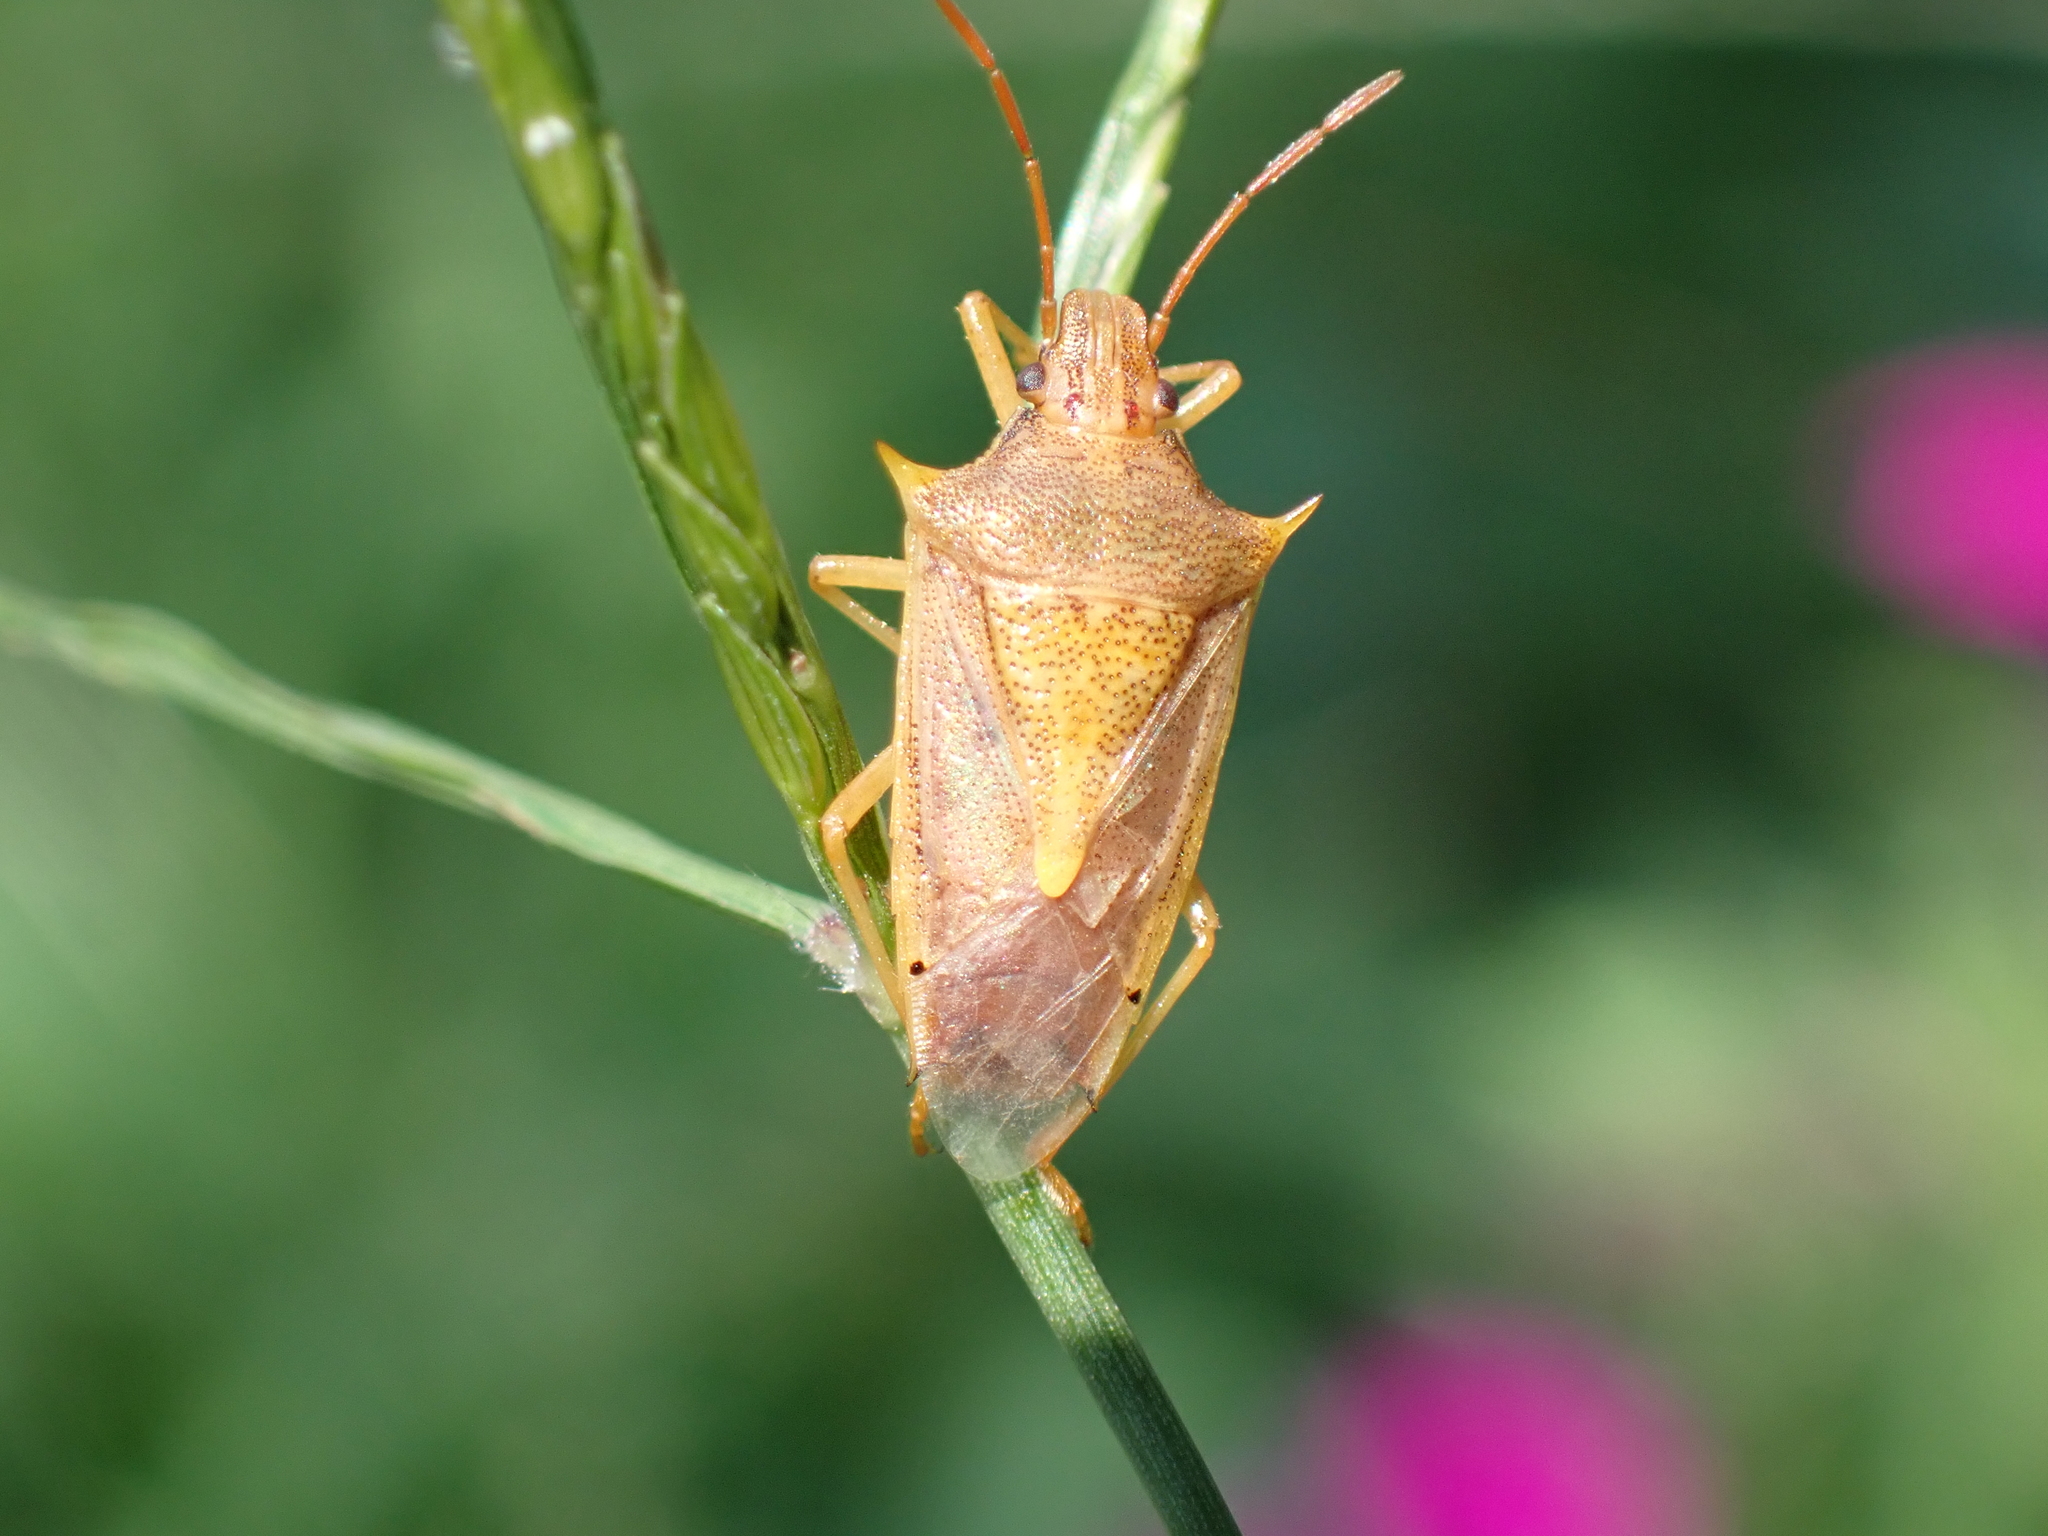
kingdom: Animalia
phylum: Arthropoda
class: Insecta
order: Hemiptera
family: Pentatomidae
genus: Oebalus
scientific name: Oebalus pugnax
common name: Rice stink bug
